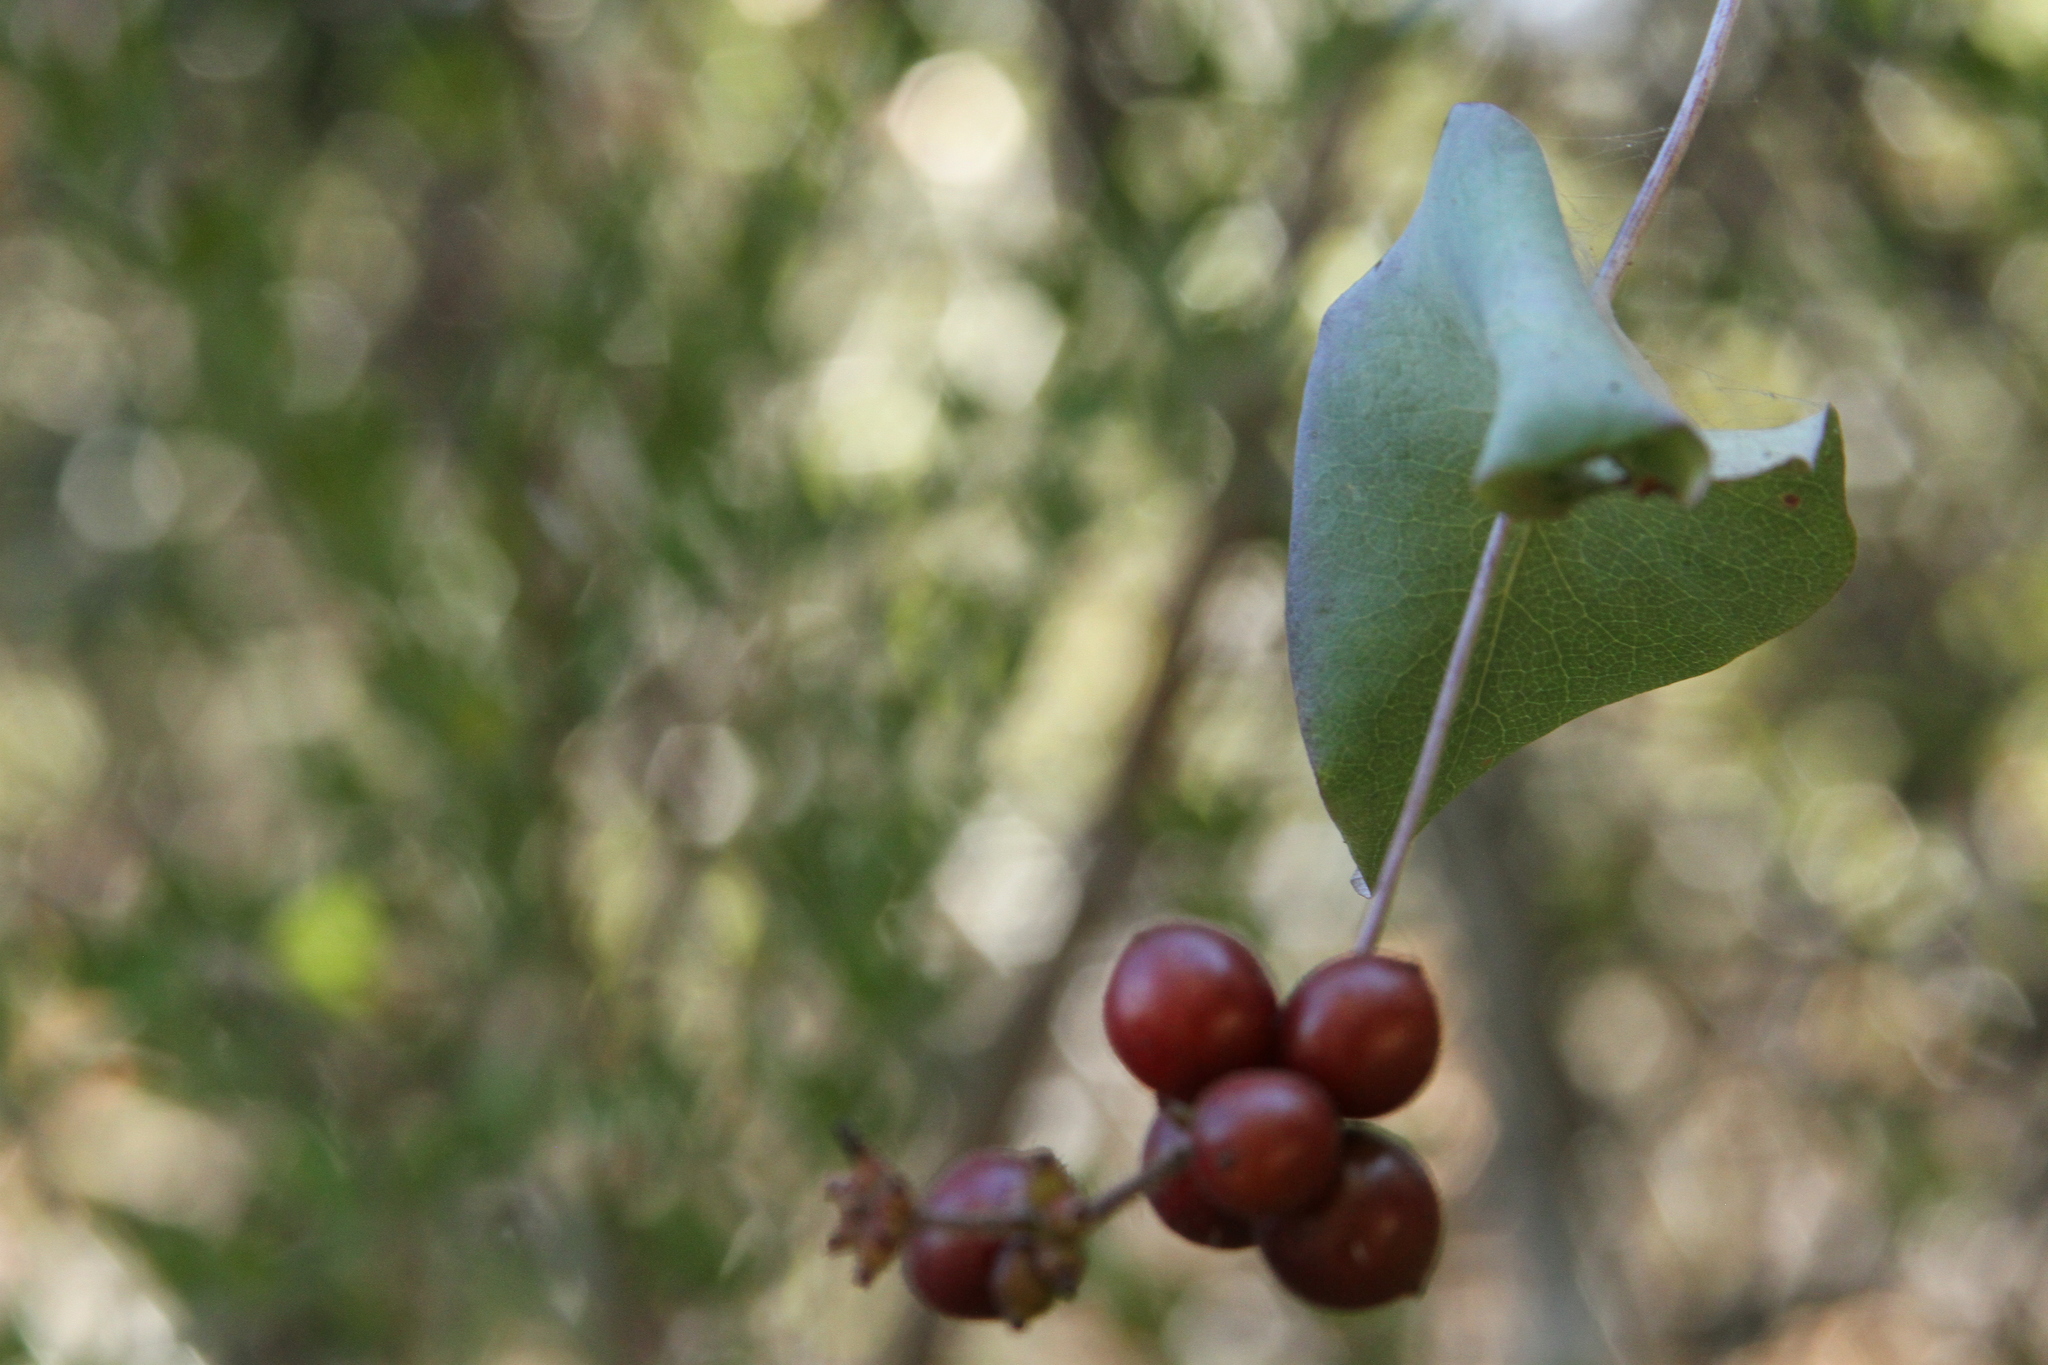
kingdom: Plantae
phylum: Tracheophyta
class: Magnoliopsida
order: Dipsacales
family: Caprifoliaceae
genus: Lonicera
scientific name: Lonicera hispidula
